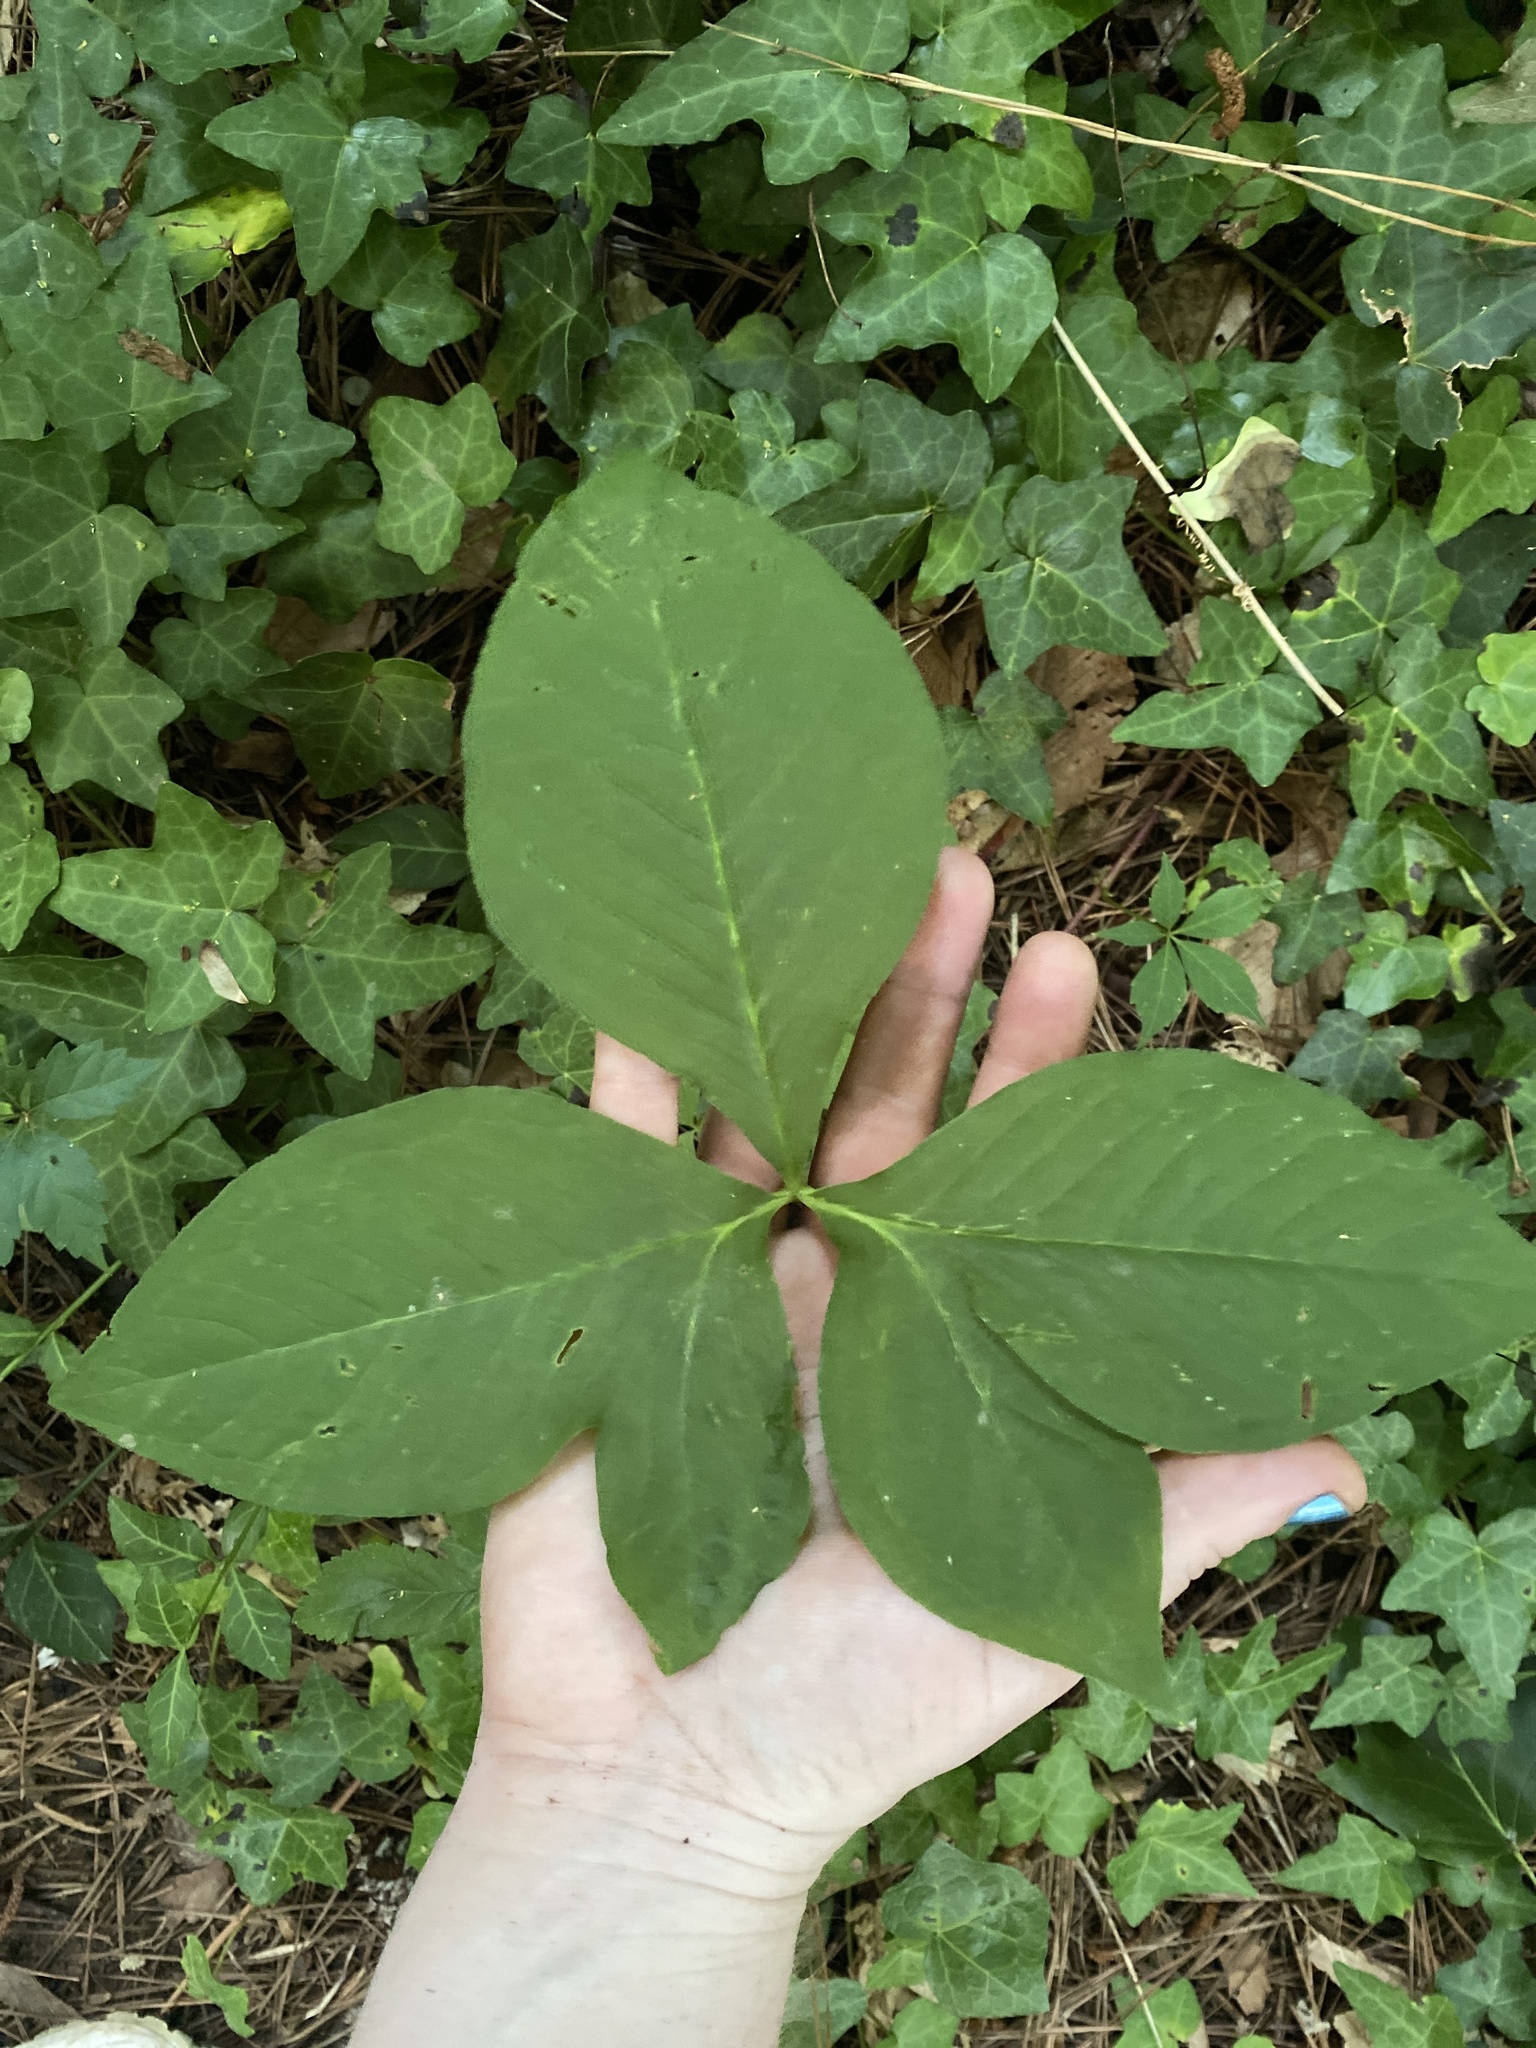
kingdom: Plantae
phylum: Tracheophyta
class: Liliopsida
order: Alismatales
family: Araceae
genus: Arisaema
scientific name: Arisaema quinatum
